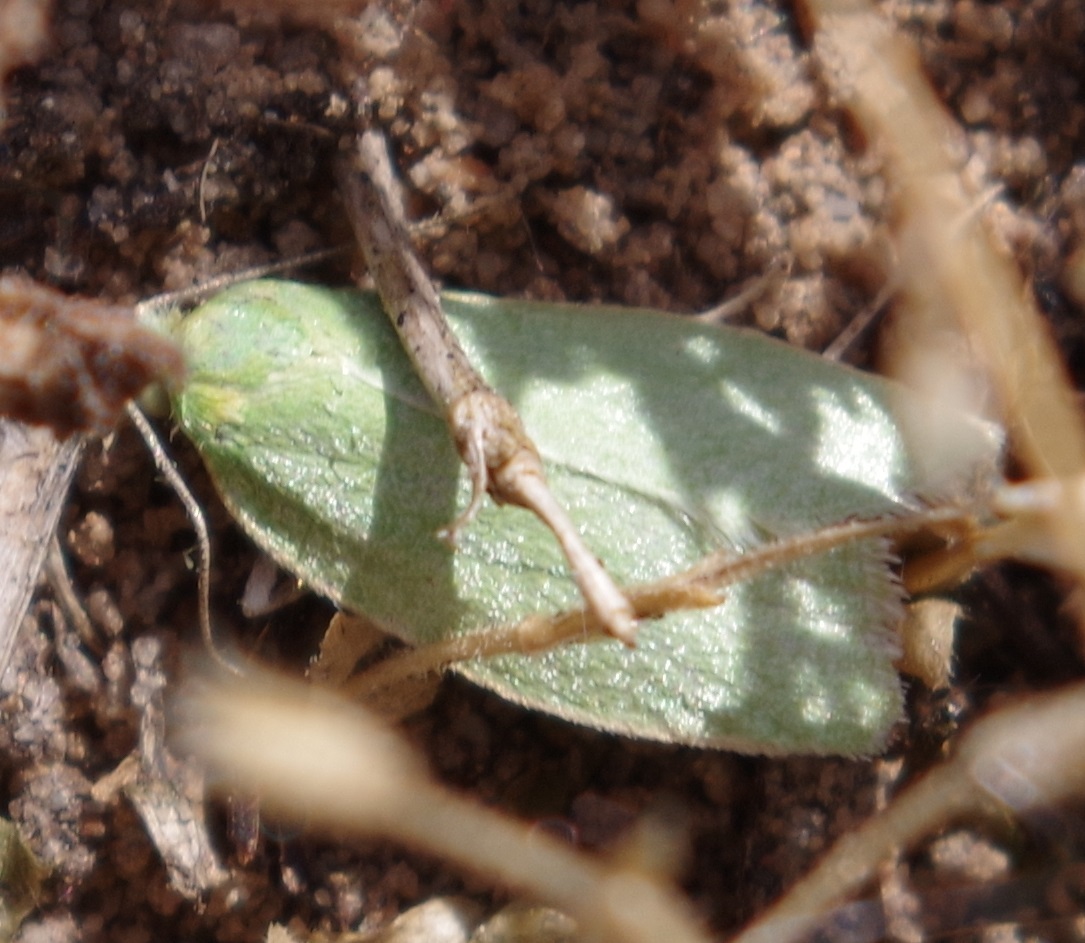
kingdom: Animalia
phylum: Arthropoda
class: Insecta
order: Lepidoptera
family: Tortricidae
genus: Tortrix
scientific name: Tortrix viridana
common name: Green oak tortrix
